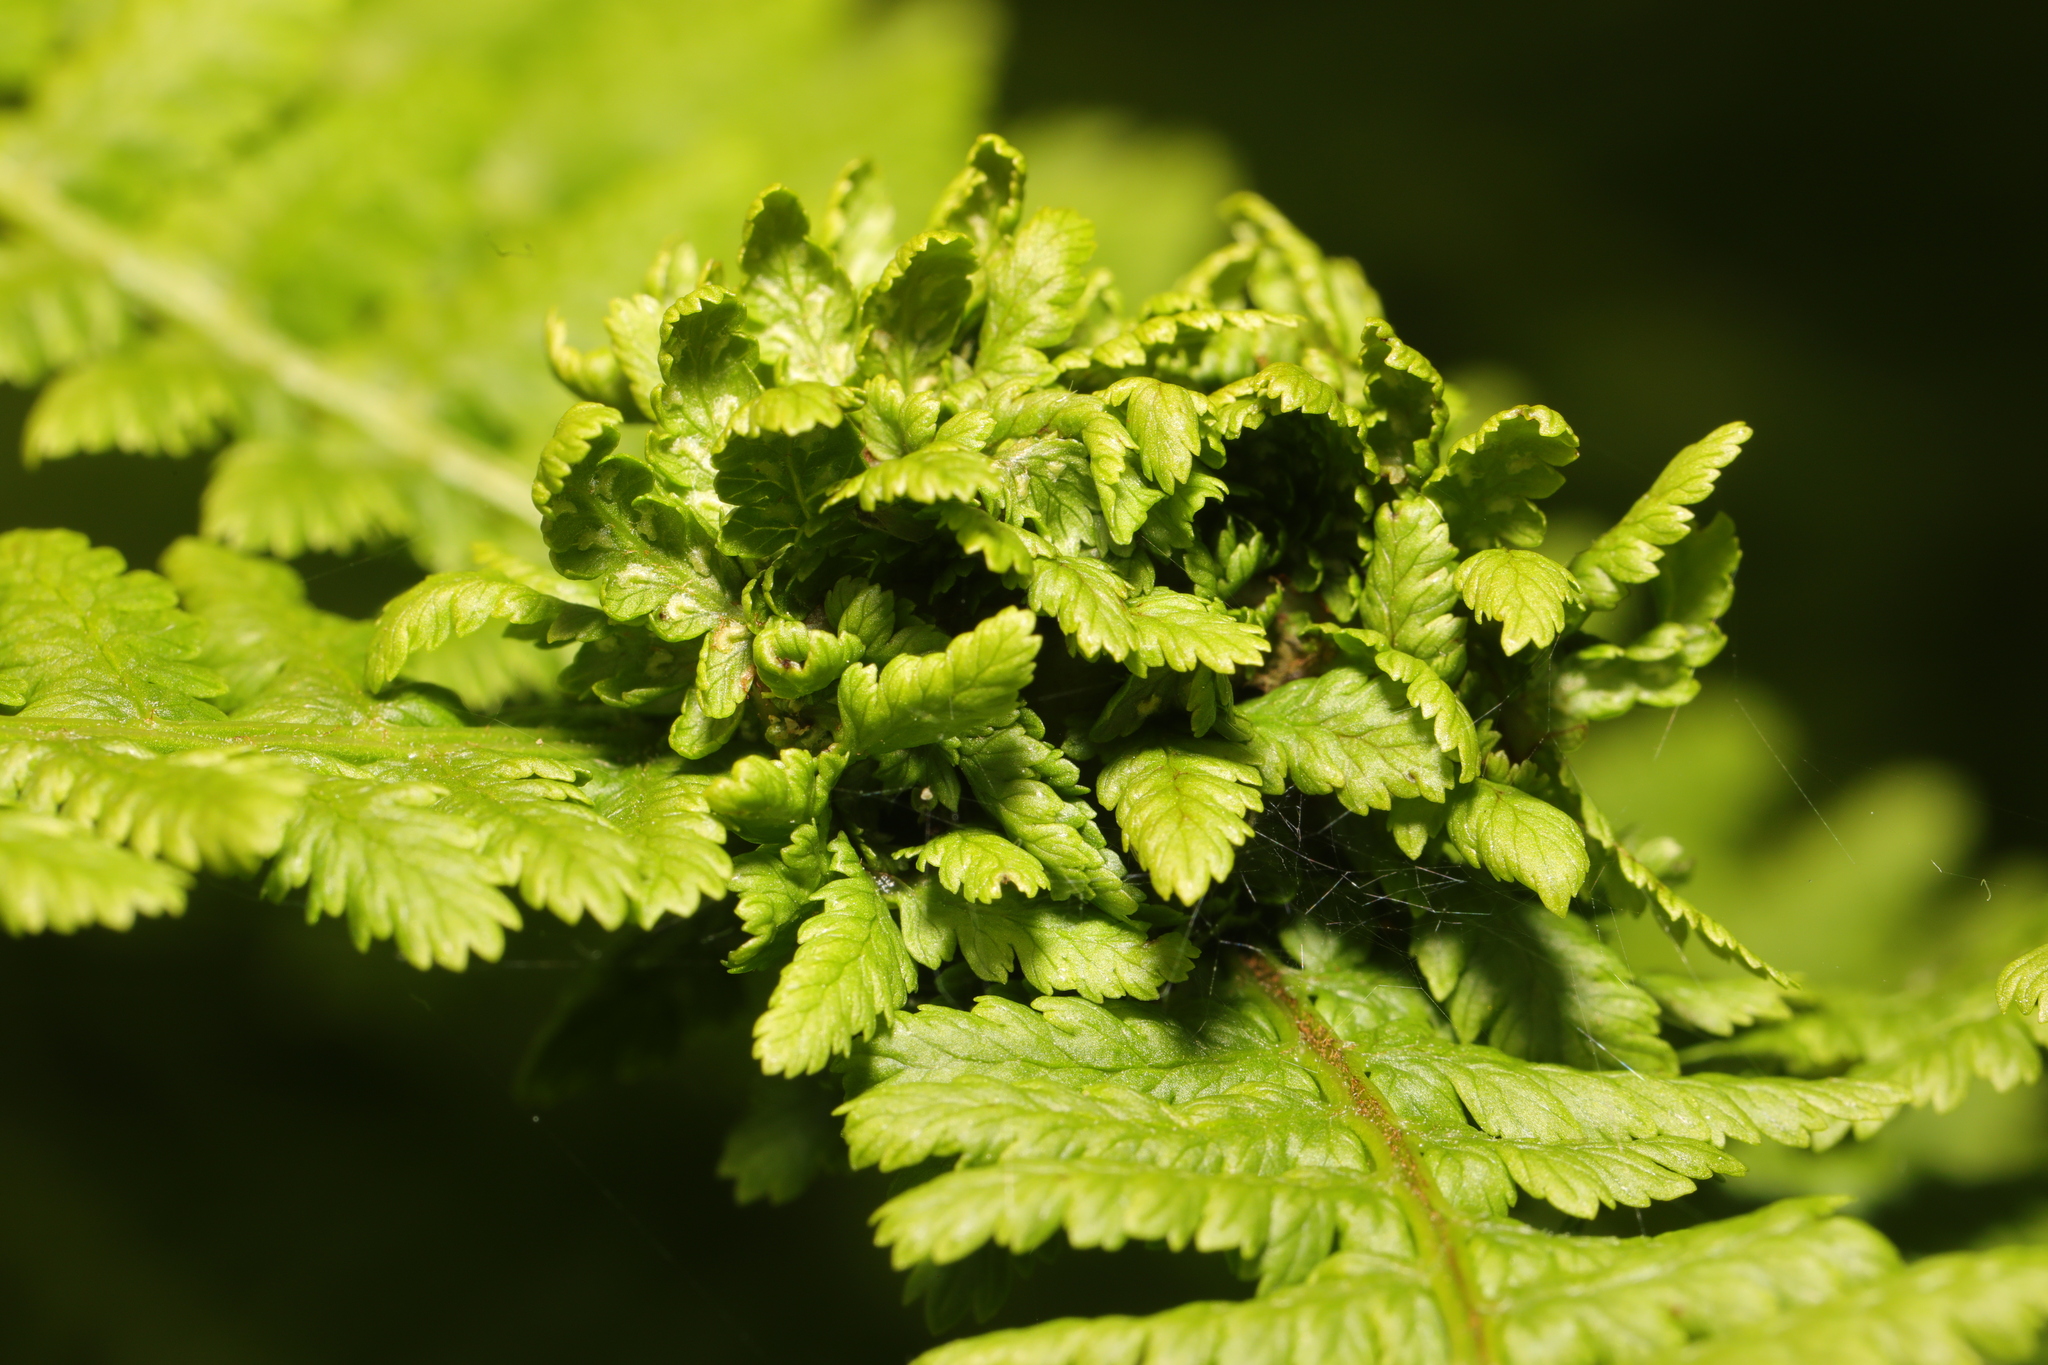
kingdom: Animalia
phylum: Arthropoda
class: Insecta
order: Diptera
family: Anthomyiidae
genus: Chirosia
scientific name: Chirosia betuleti
